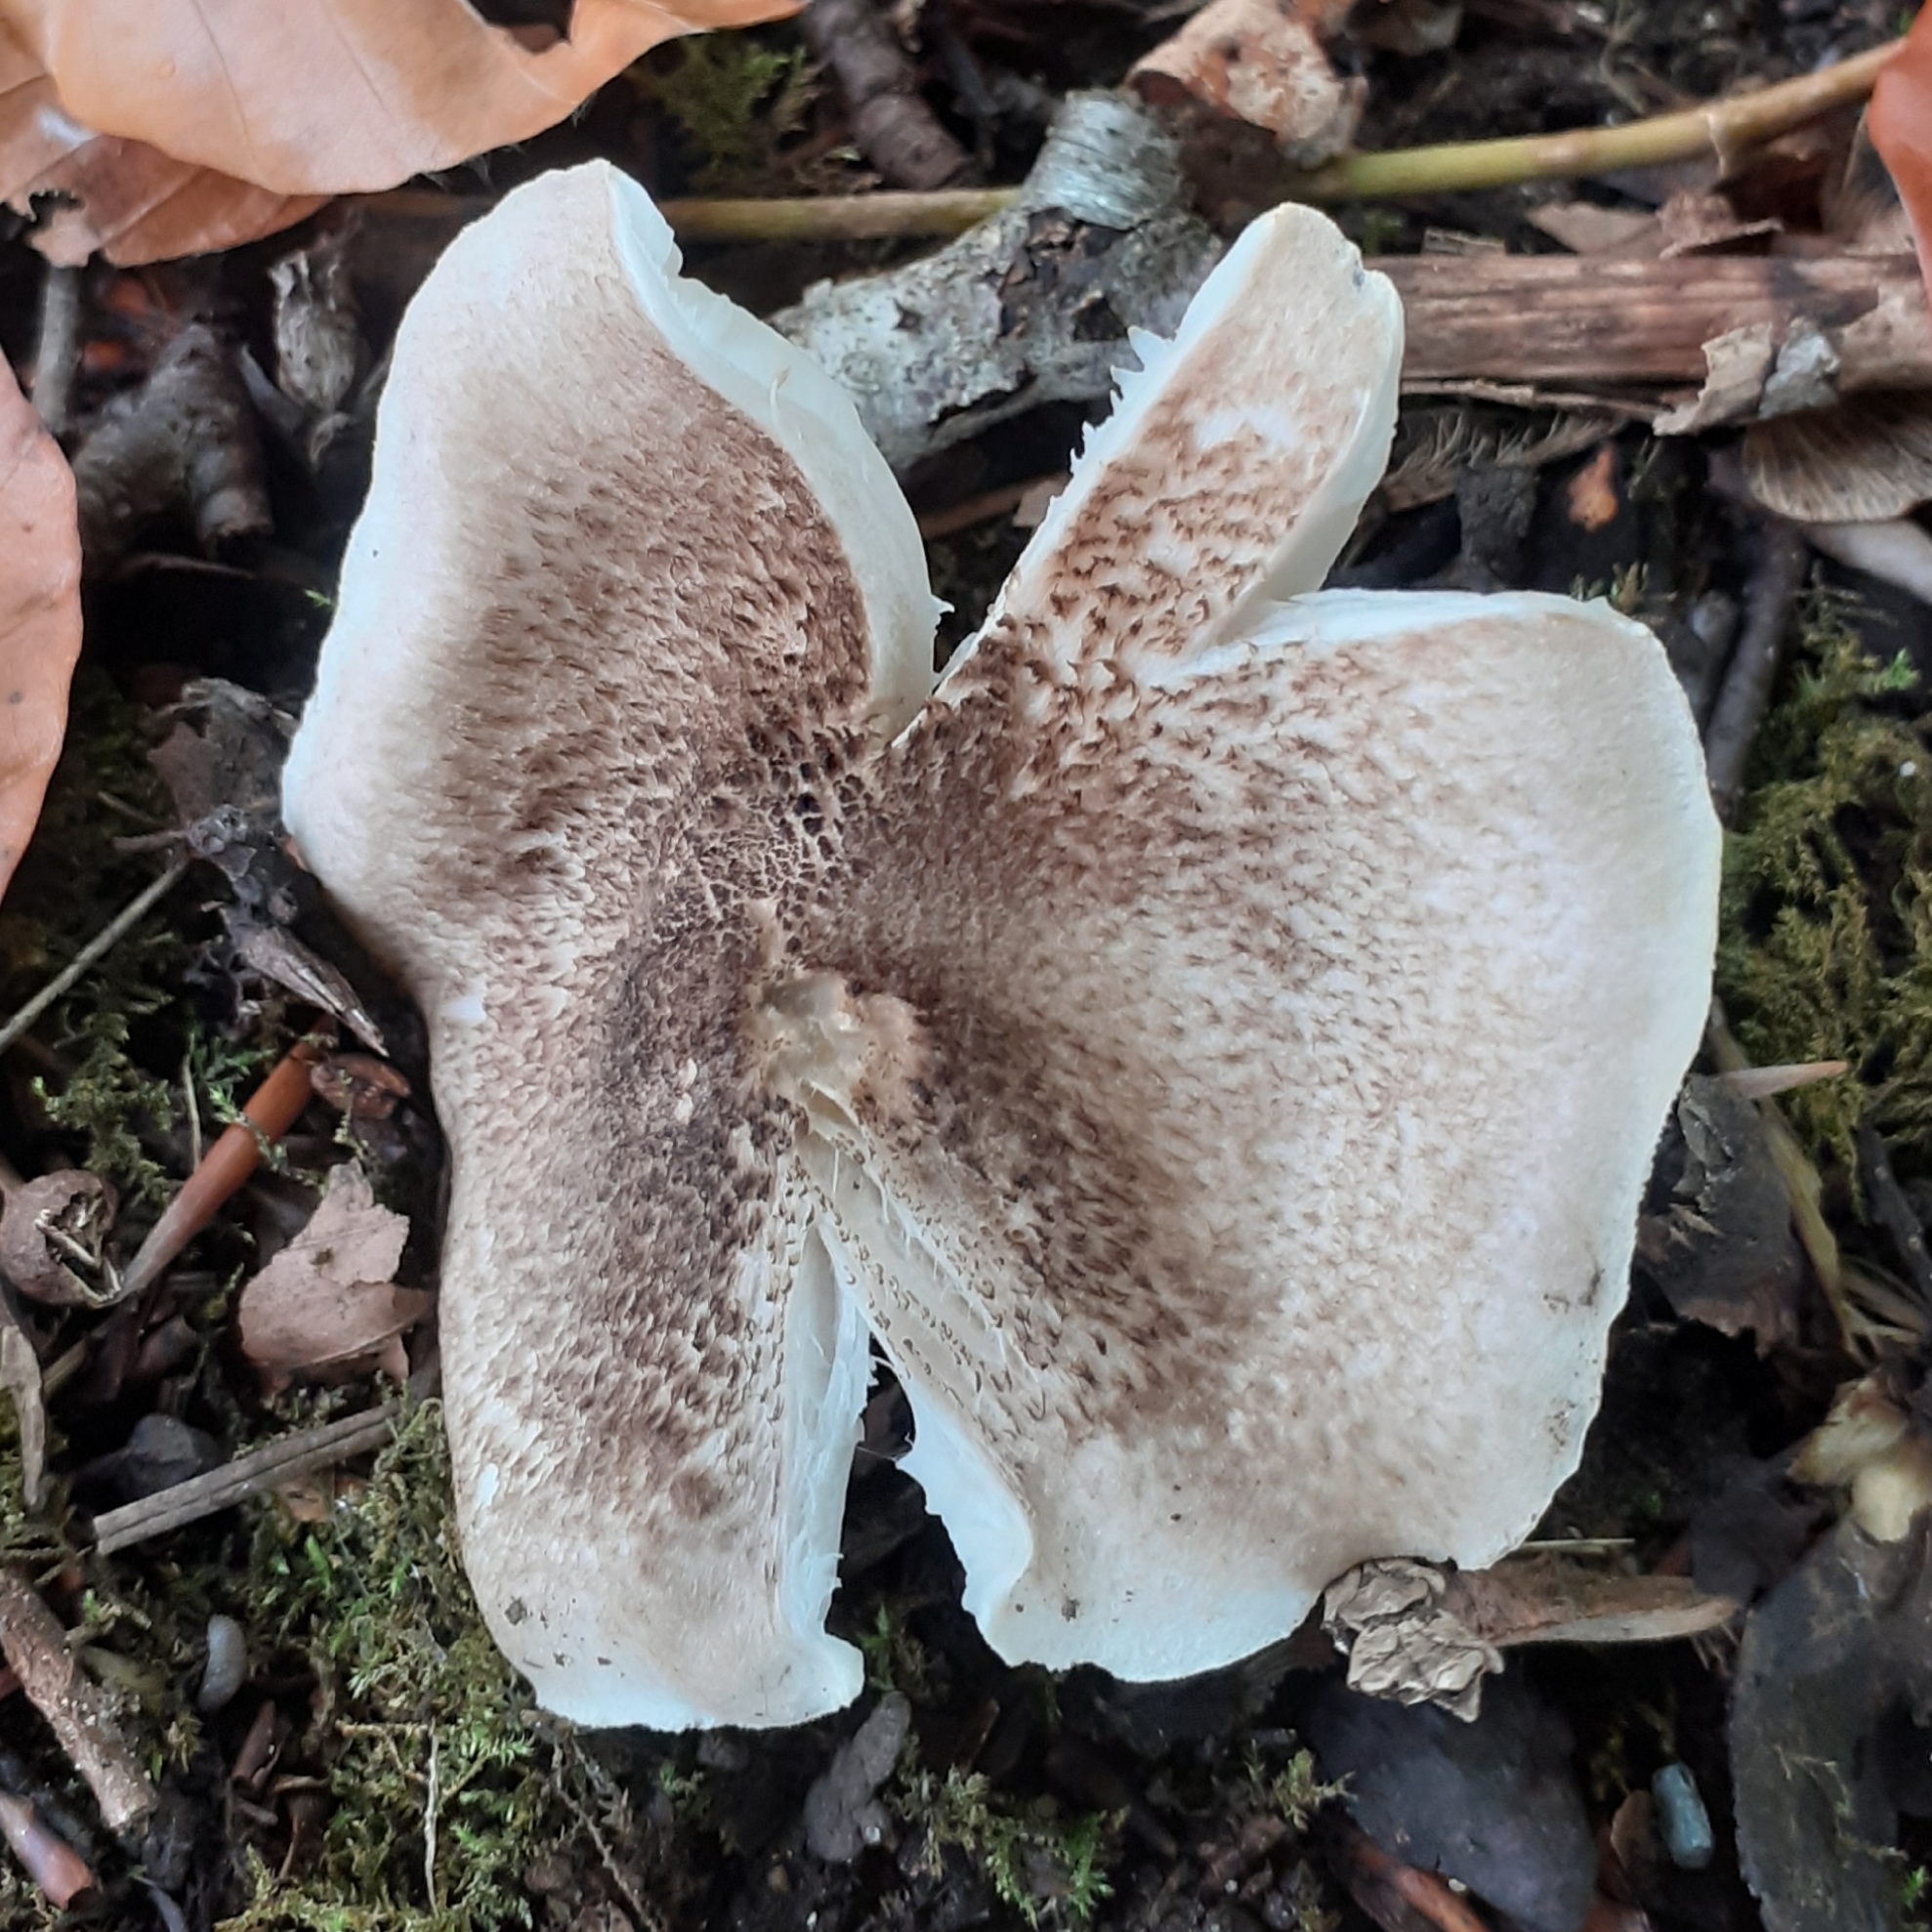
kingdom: Fungi
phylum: Basidiomycota
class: Agaricomycetes
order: Agaricales
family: Tricholomataceae
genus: Tricholoma
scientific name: Tricholoma scalpturatum
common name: Yellowing knight
